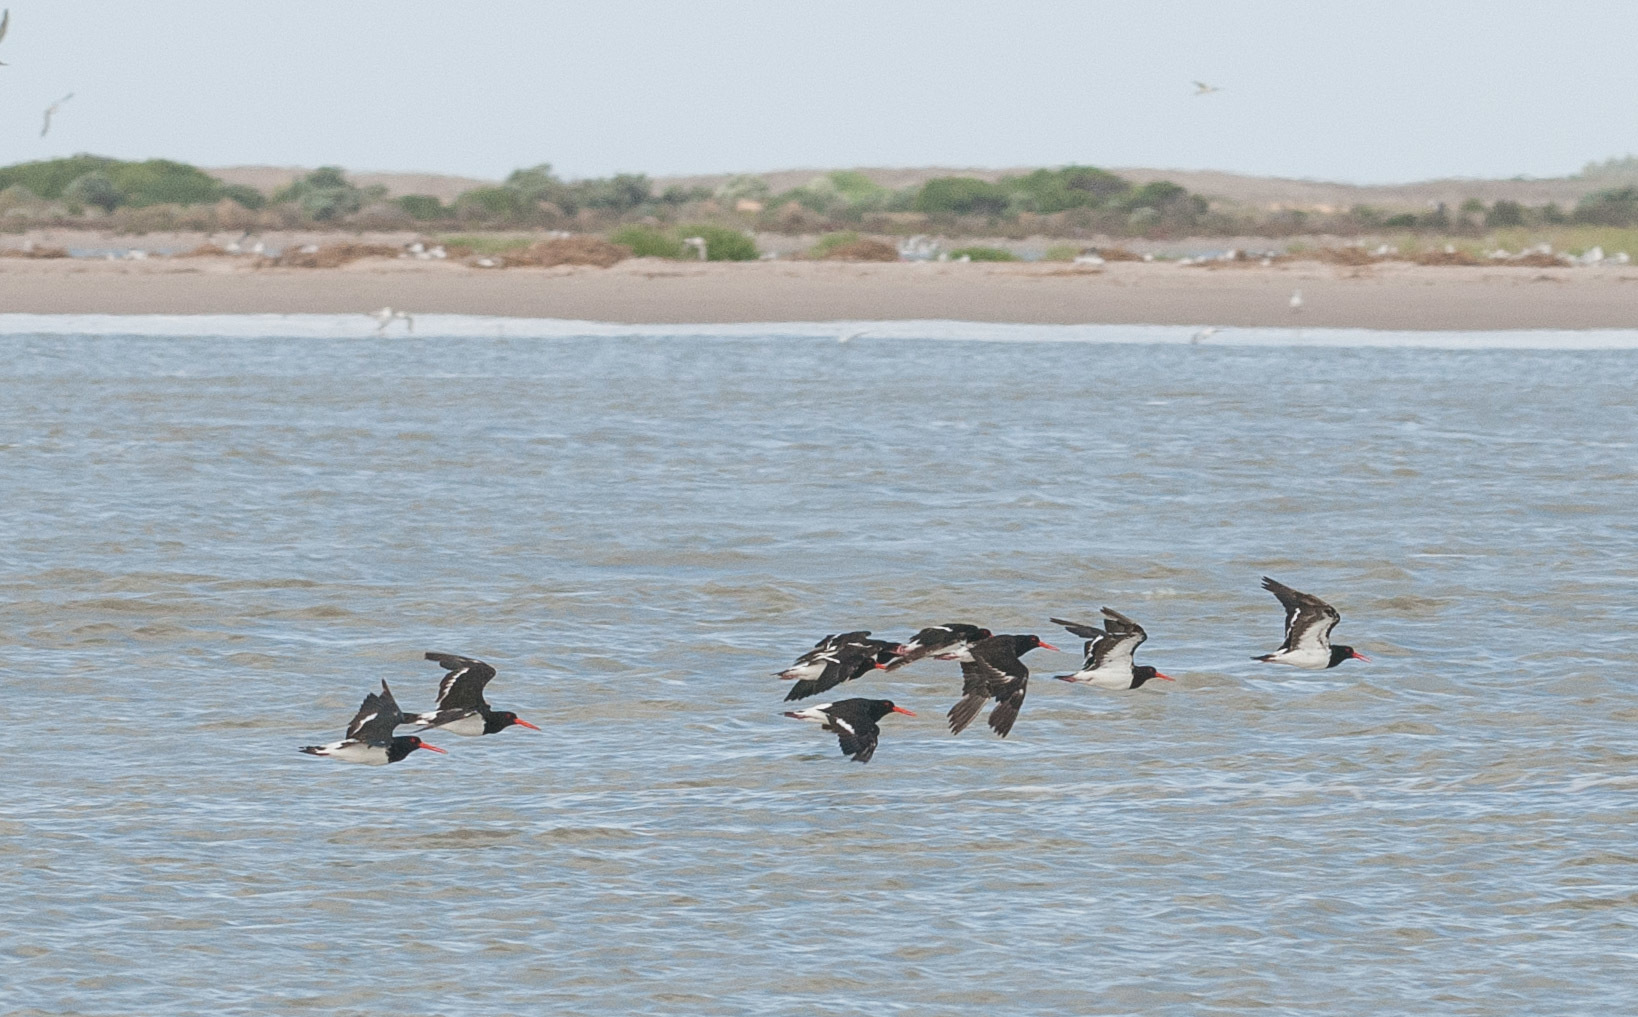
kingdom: Animalia
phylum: Chordata
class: Aves
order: Charadriiformes
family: Haematopodidae
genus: Haematopus
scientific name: Haematopus longirostris
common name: Pied oystercatcher
